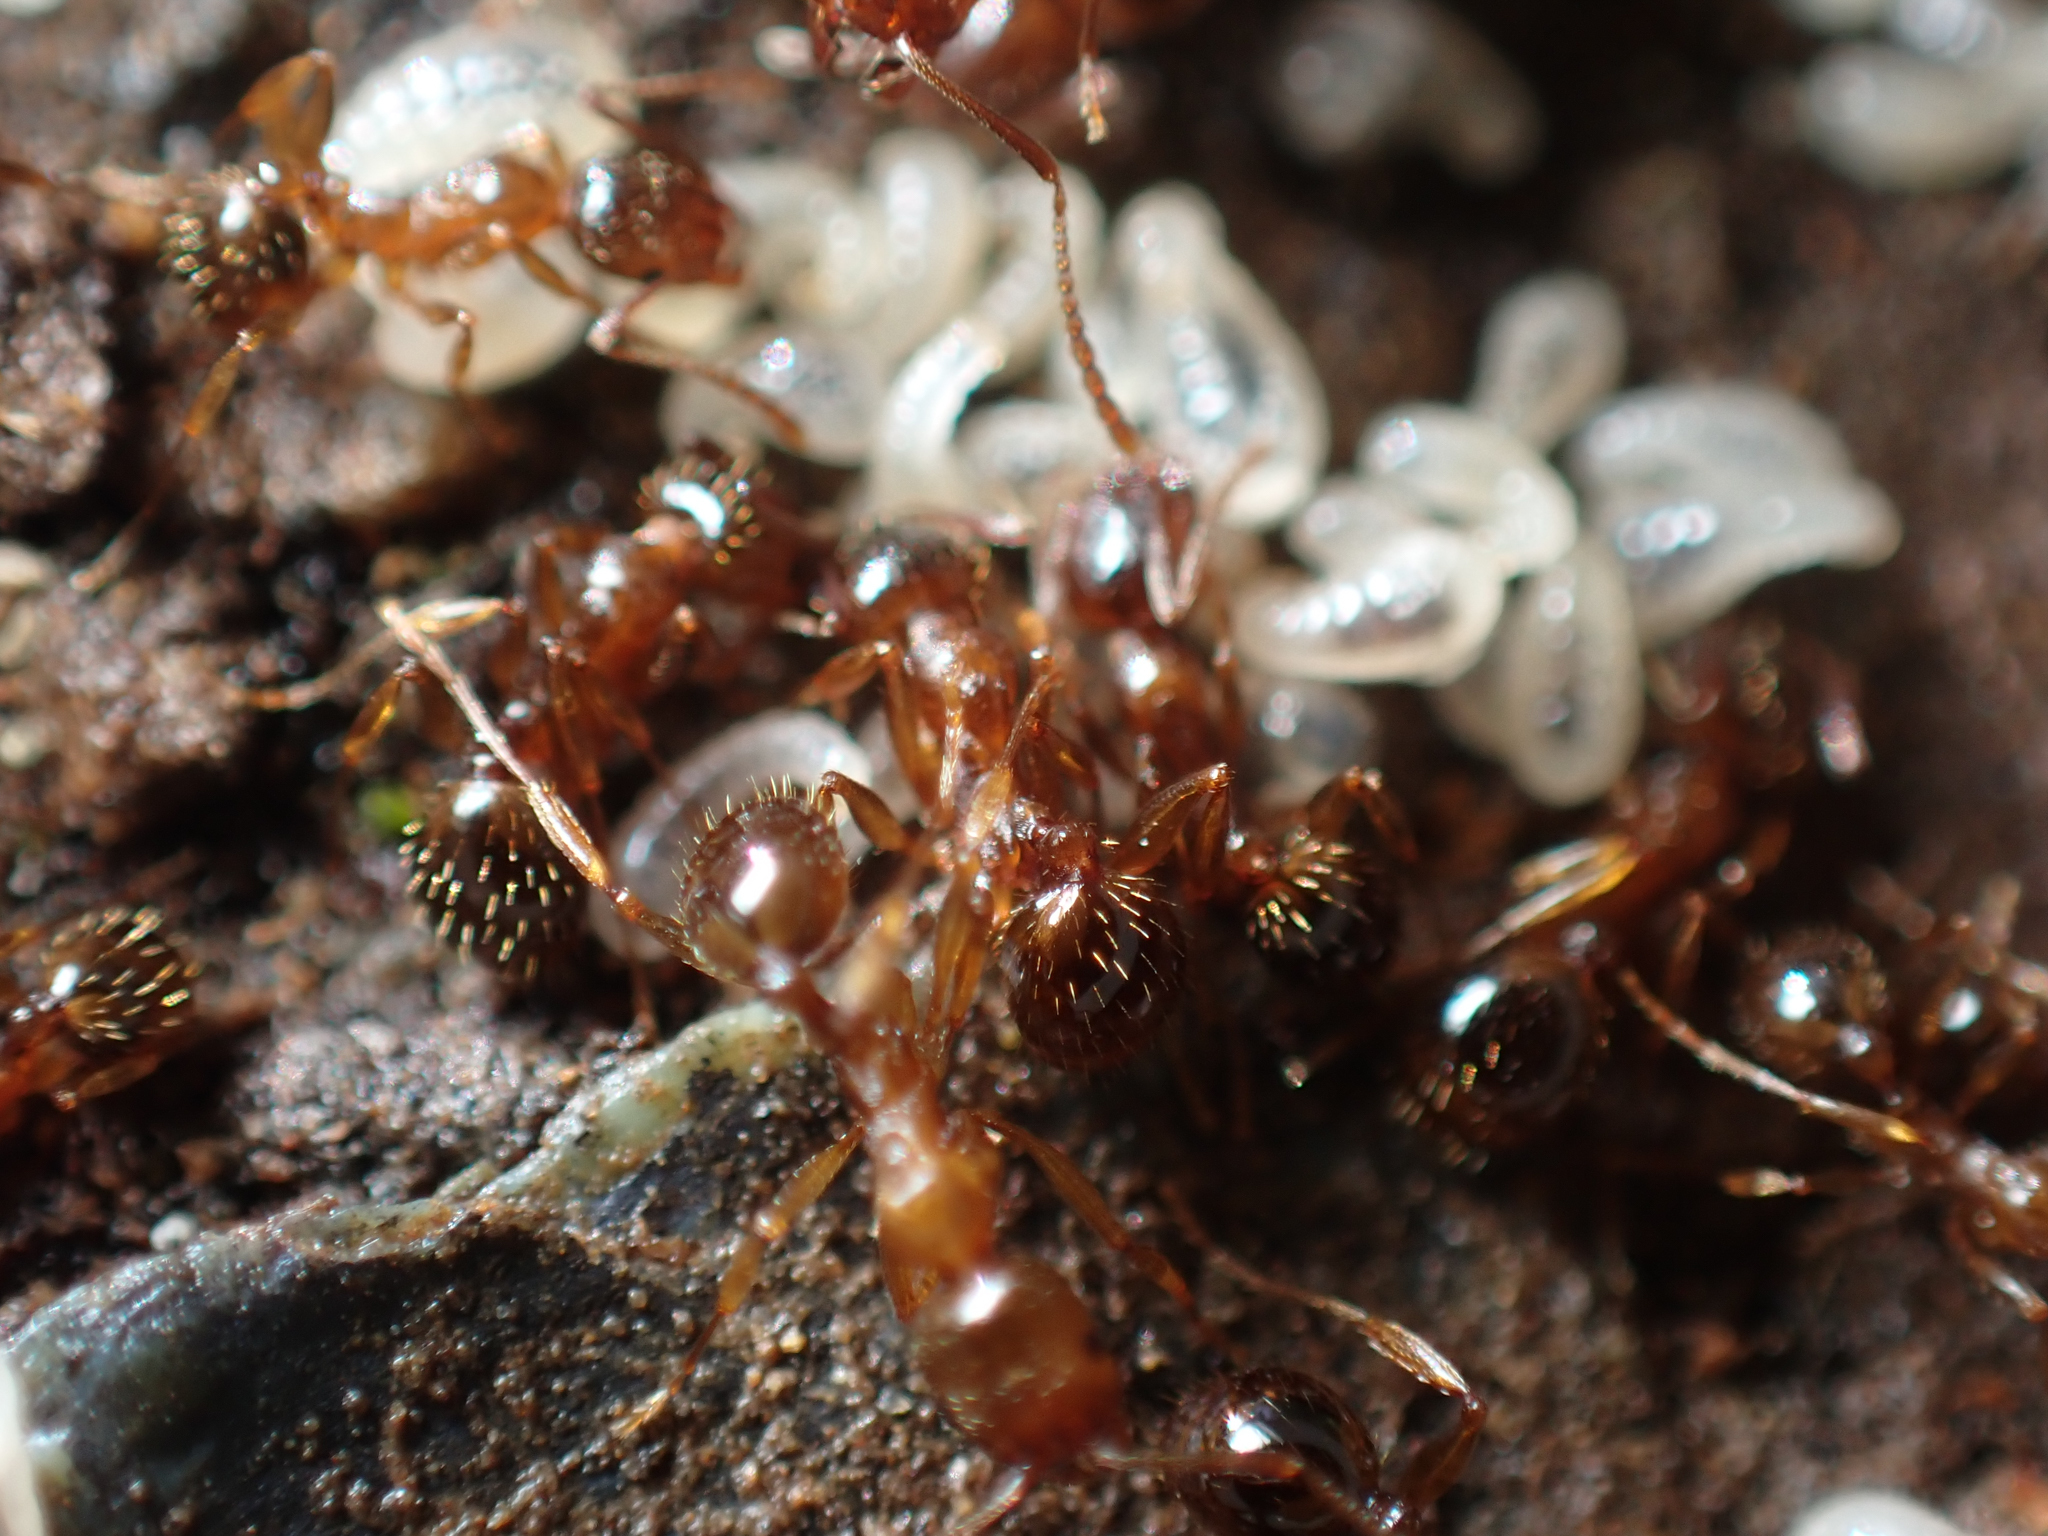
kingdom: Animalia
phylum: Arthropoda
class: Insecta
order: Hymenoptera
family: Formicidae
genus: Aphaenogaster
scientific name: Aphaenogaster occidentalis
